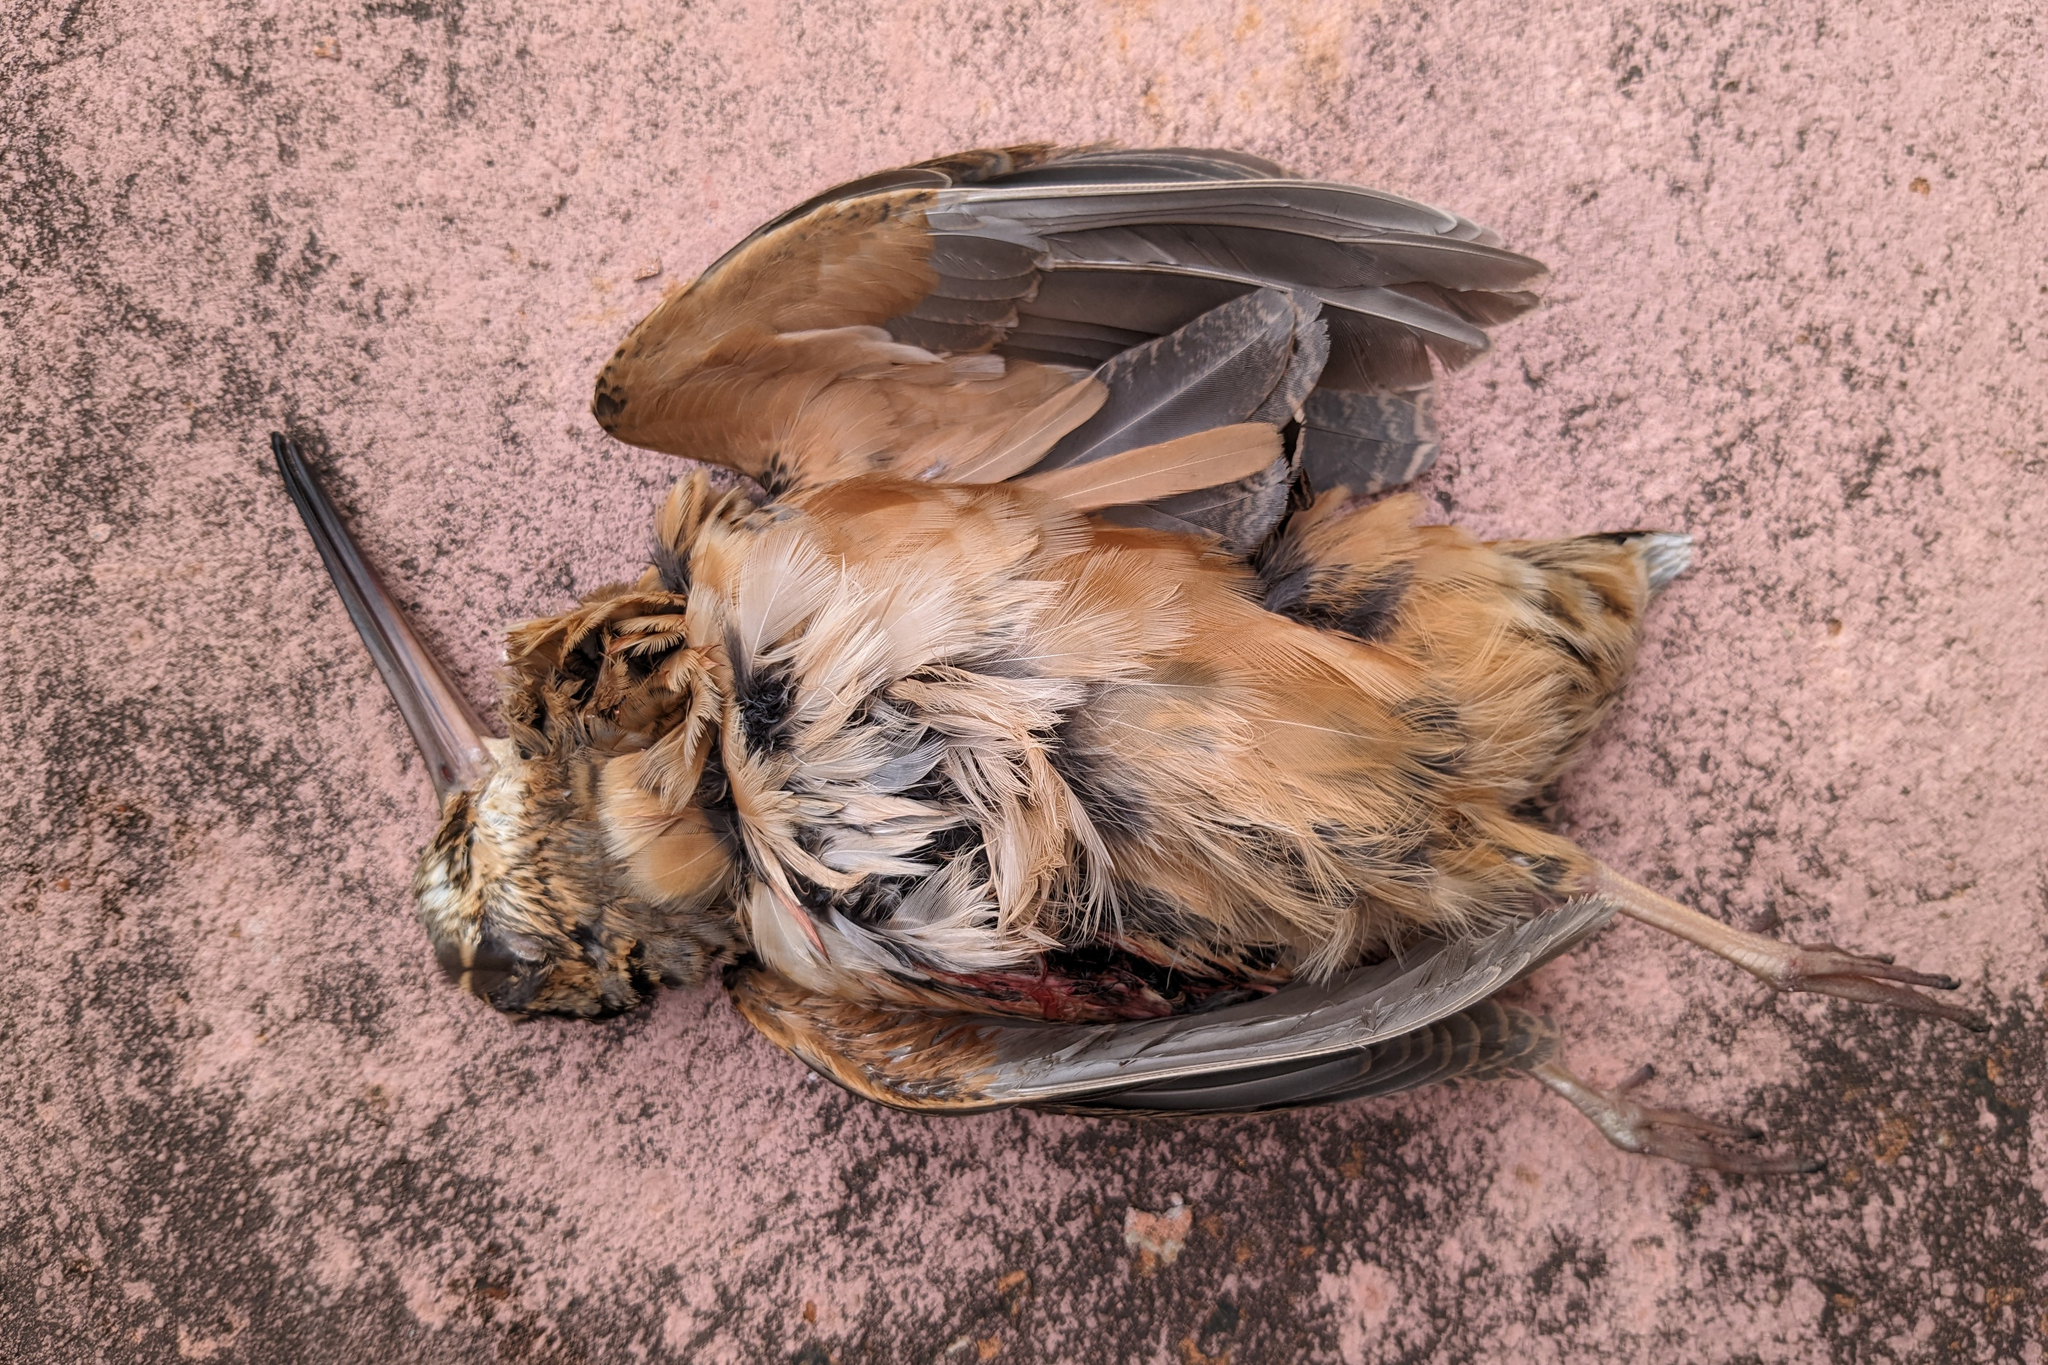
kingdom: Animalia
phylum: Chordata
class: Aves
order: Charadriiformes
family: Scolopacidae
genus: Scolopax
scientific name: Scolopax minor
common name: American woodcock
